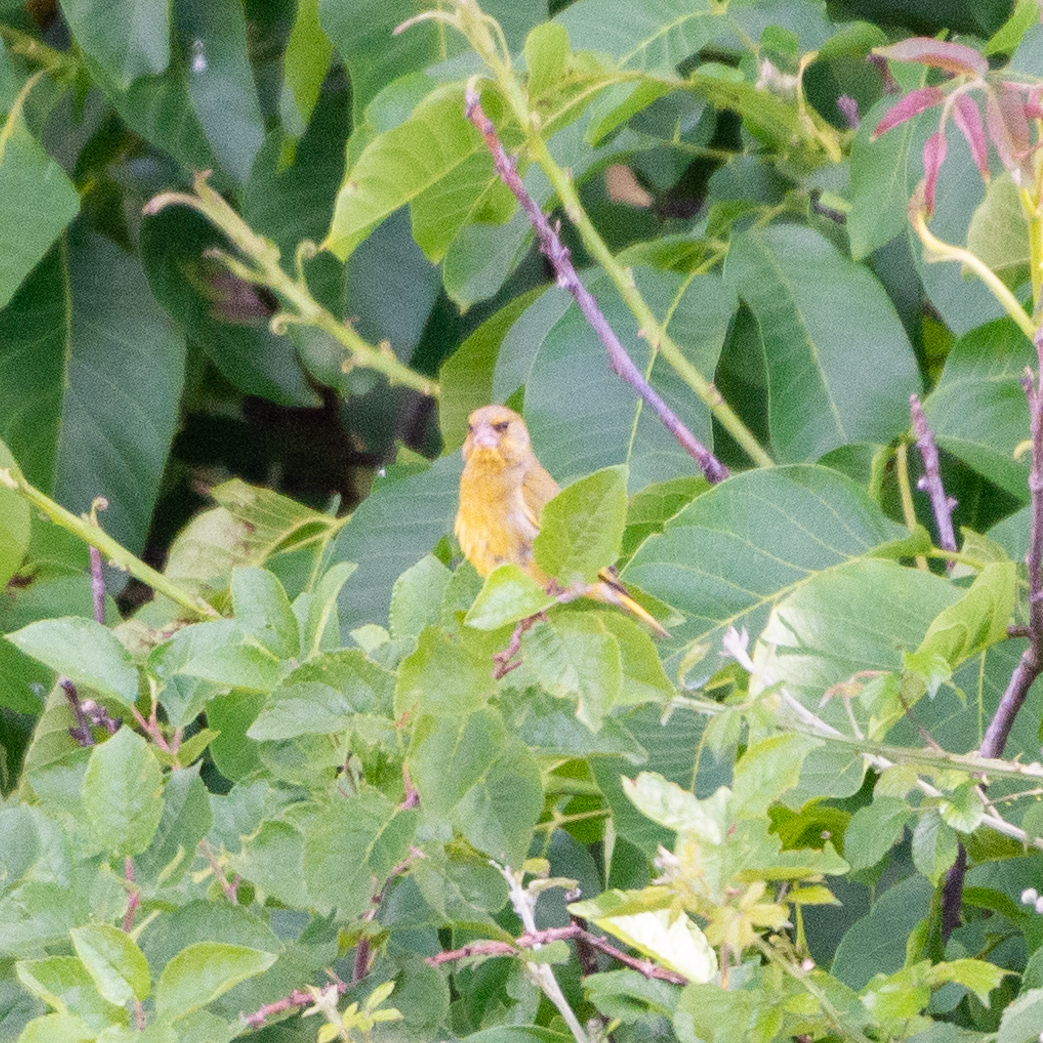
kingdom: Plantae
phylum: Tracheophyta
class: Liliopsida
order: Poales
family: Poaceae
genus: Chloris
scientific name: Chloris chloris
